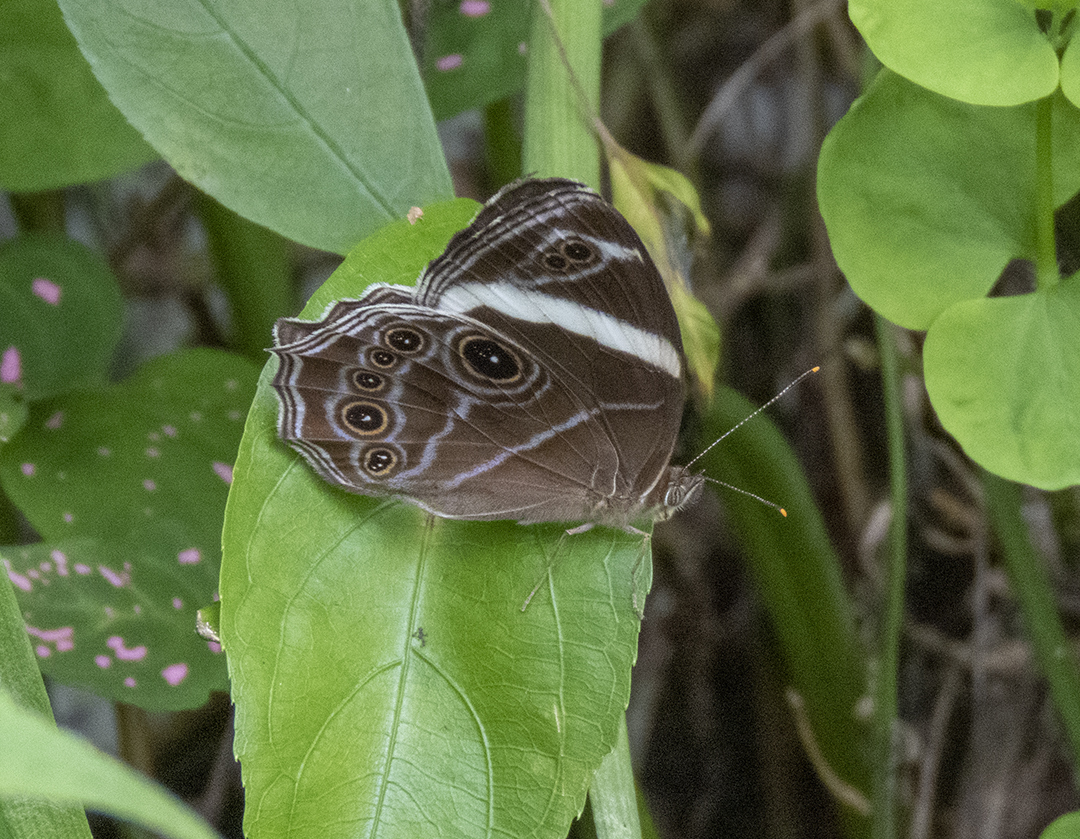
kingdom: Animalia
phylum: Arthropoda
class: Insecta
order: Lepidoptera
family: Nymphalidae
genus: Lethe
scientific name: Lethe confusa
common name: Banded treebrown
